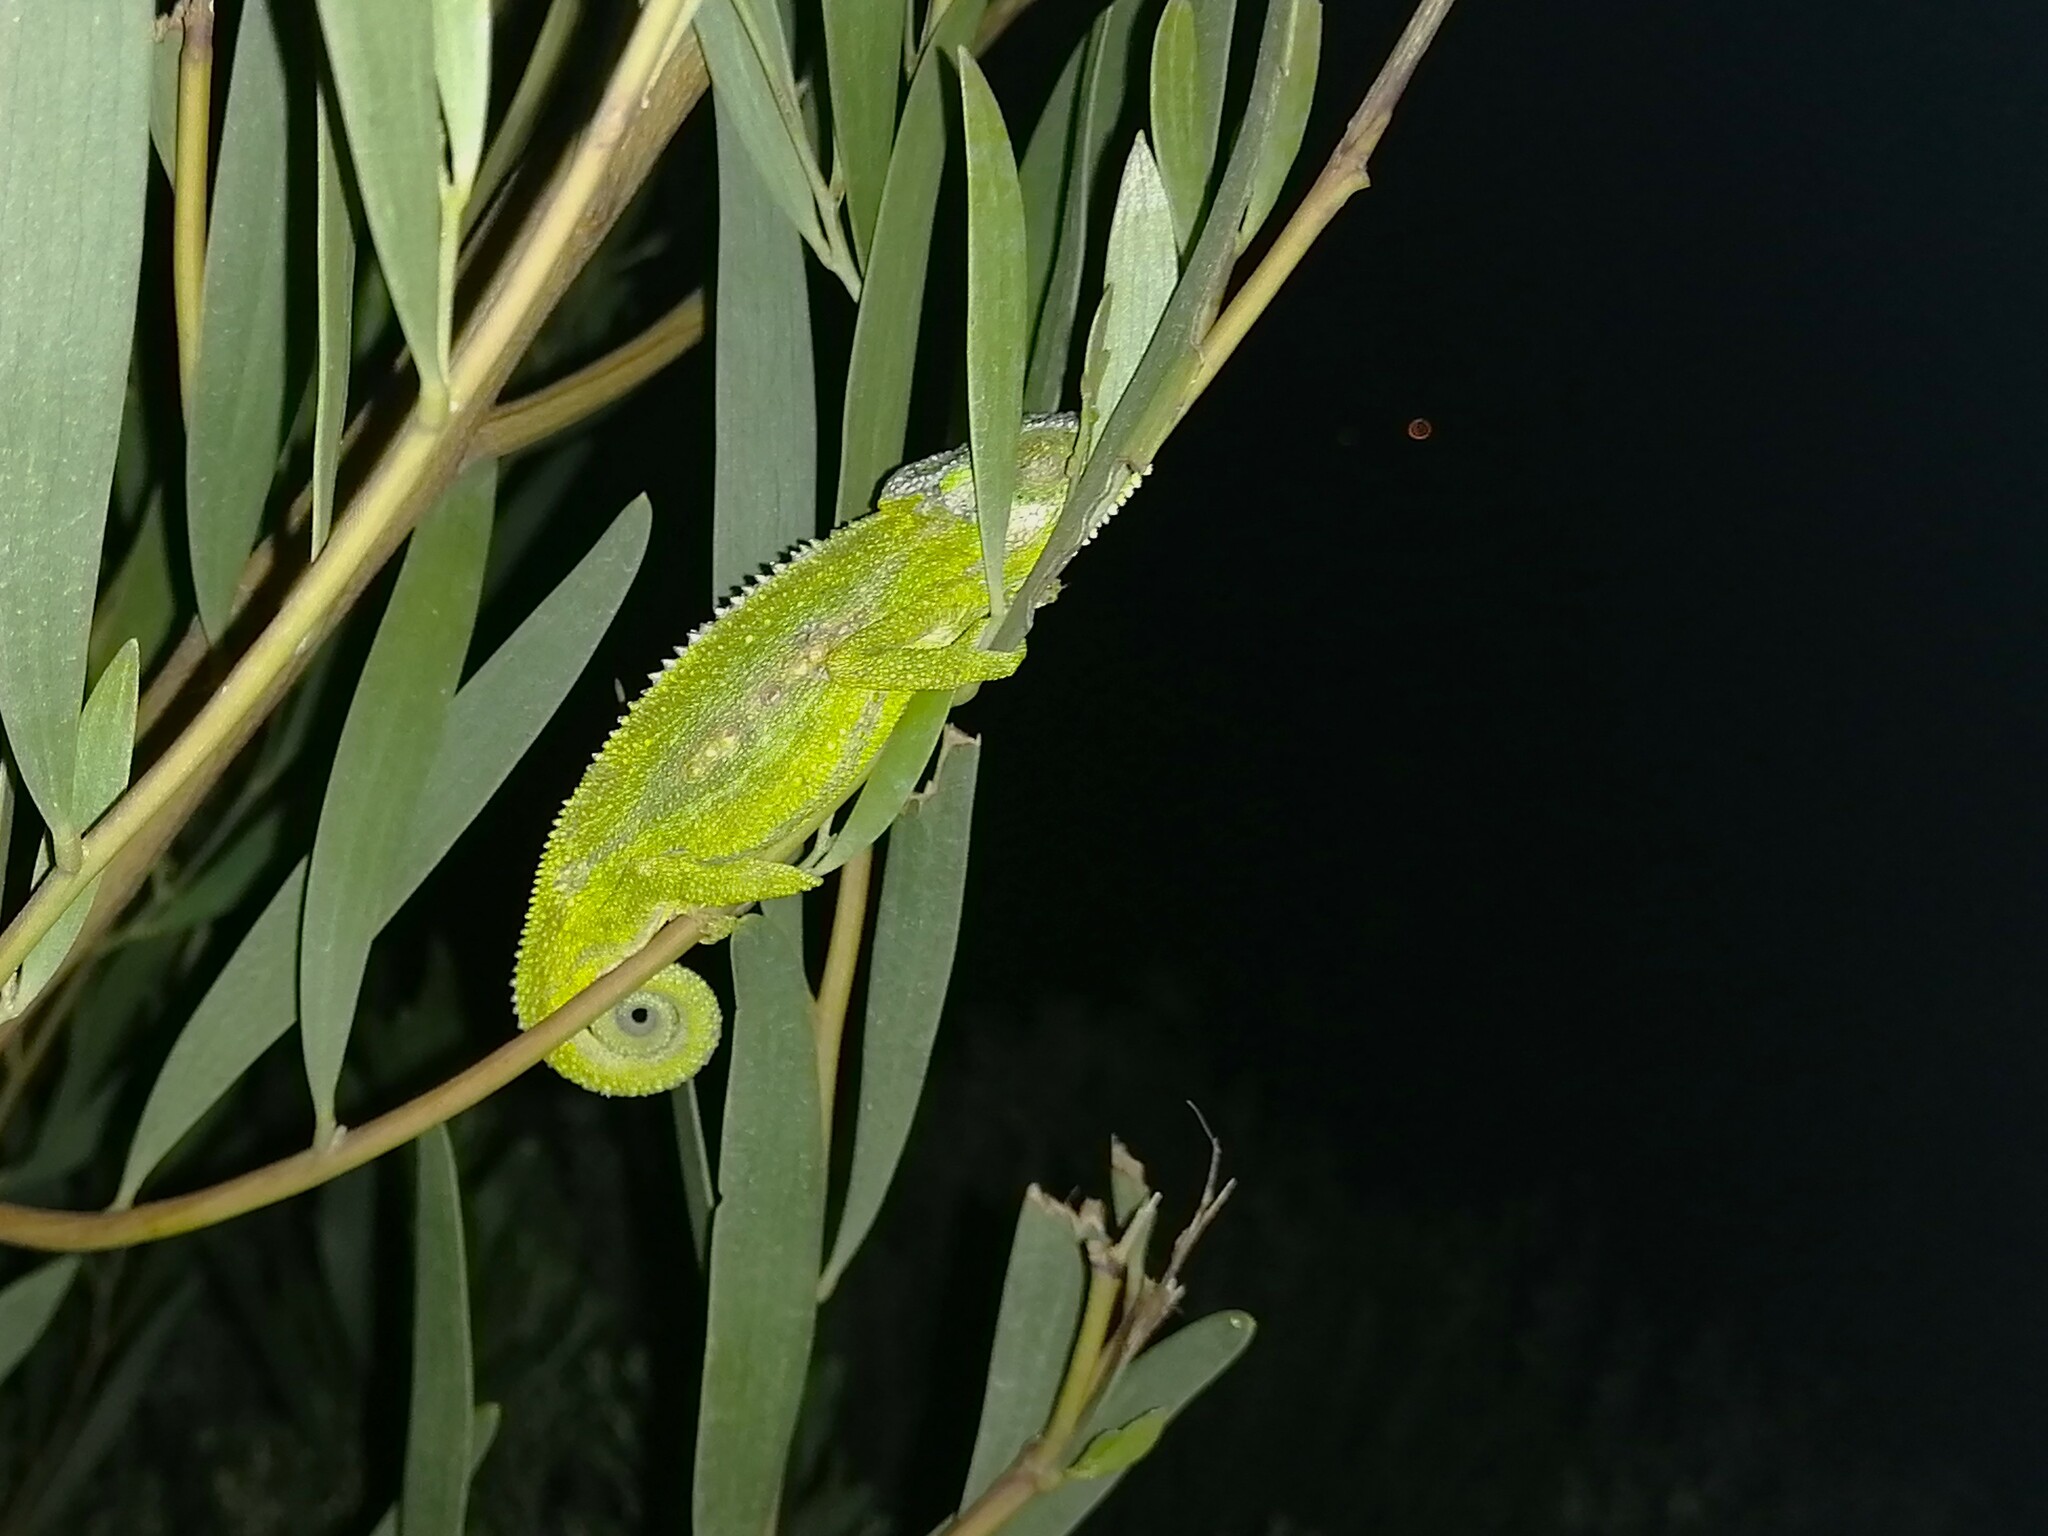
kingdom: Animalia
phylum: Chordata
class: Squamata
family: Chamaeleonidae
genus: Bradypodion
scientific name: Bradypodion pumilum
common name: Cape dwarf chameleon
